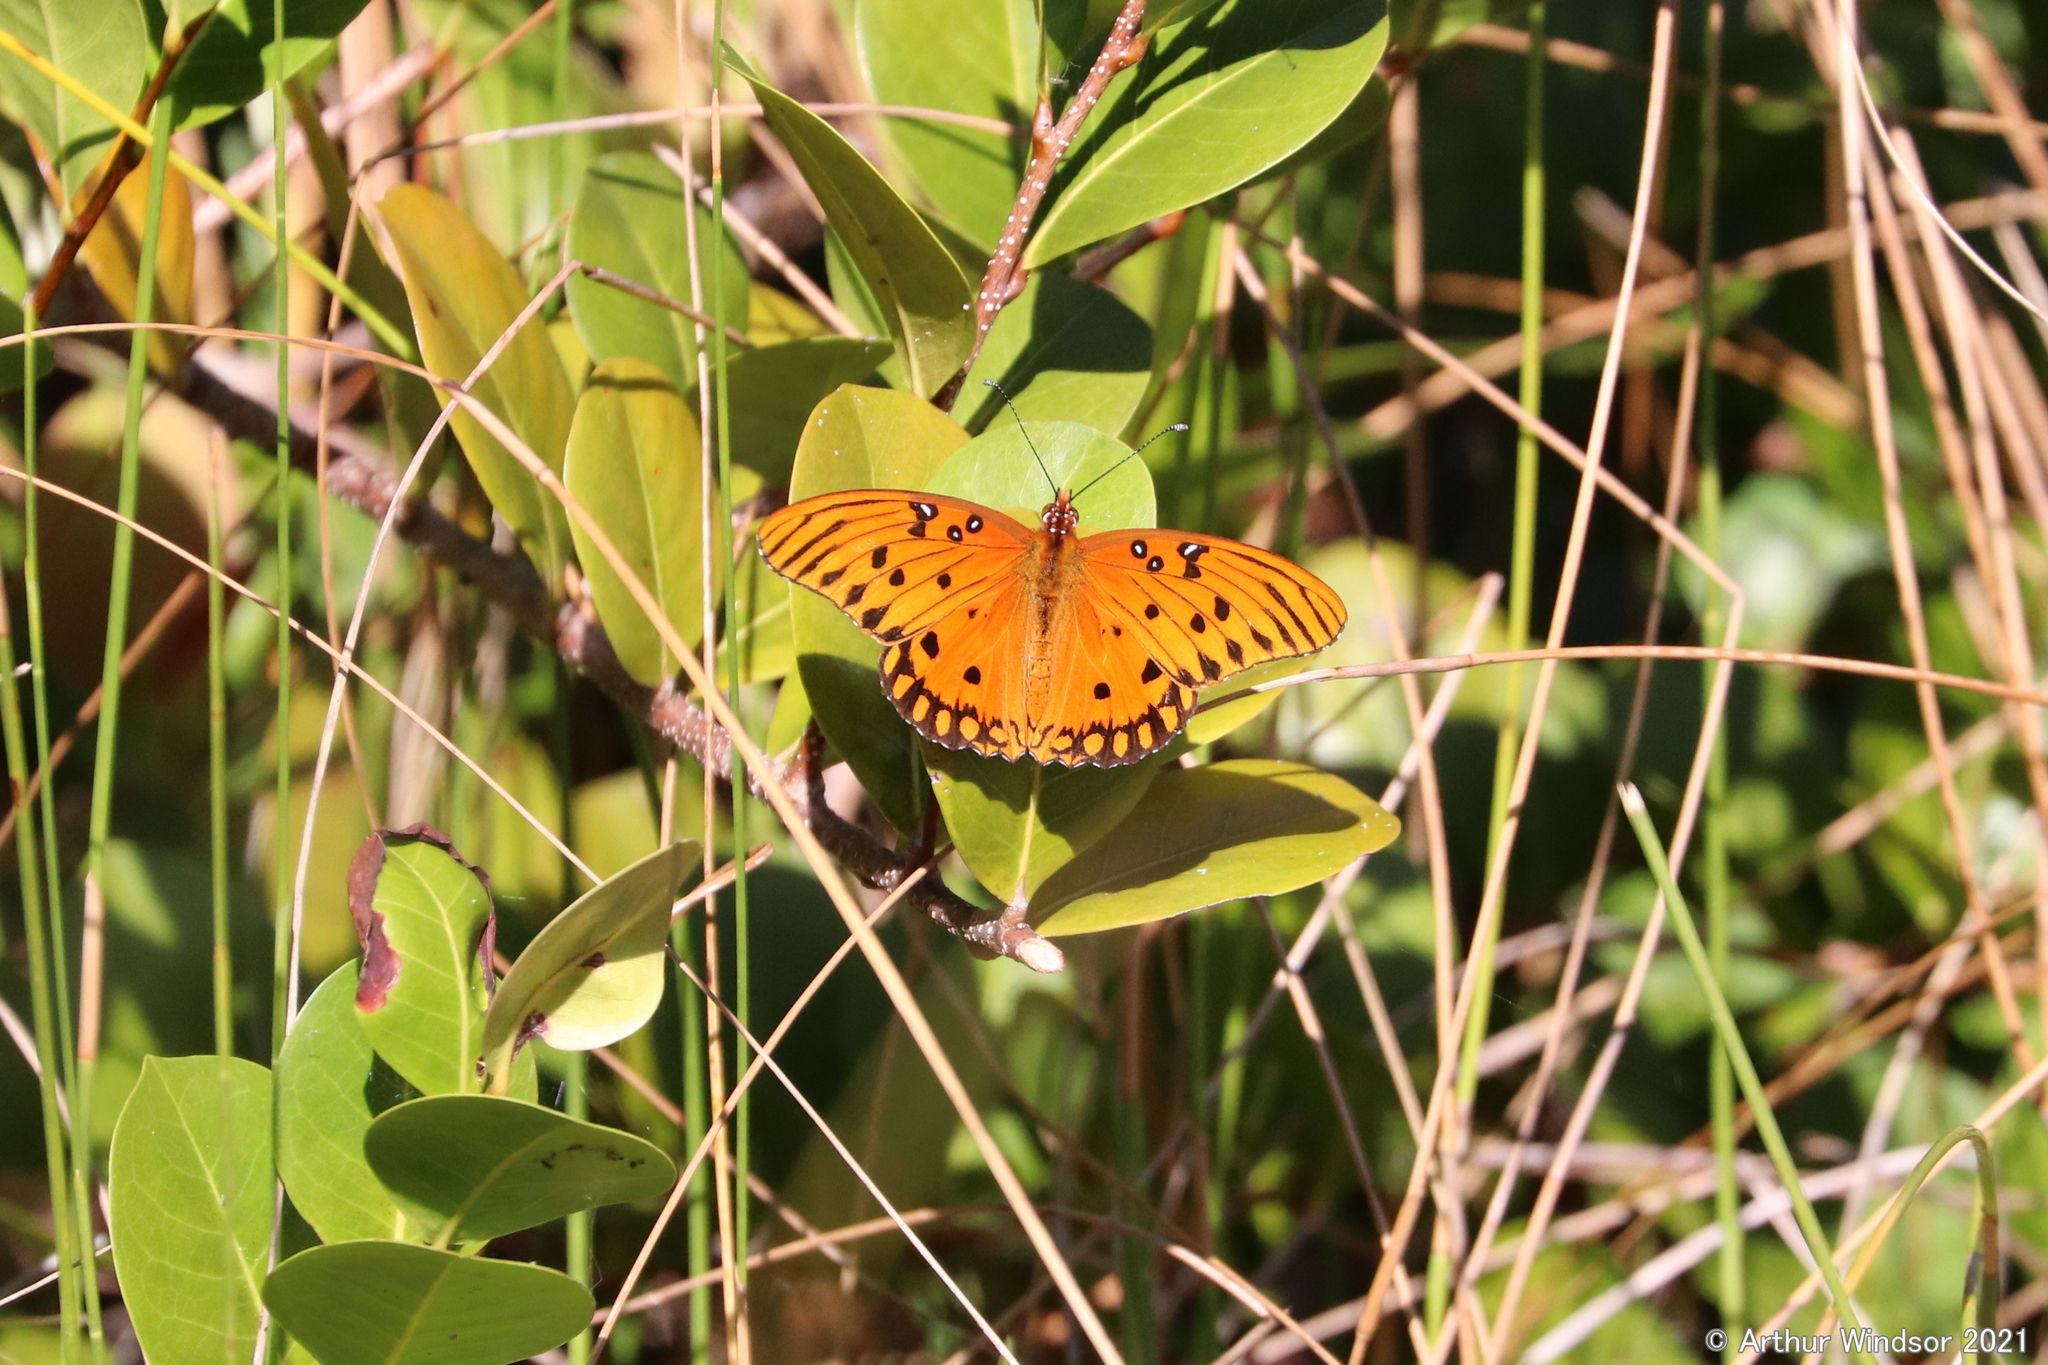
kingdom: Animalia
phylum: Arthropoda
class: Insecta
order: Lepidoptera
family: Nymphalidae
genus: Dione
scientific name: Dione vanillae
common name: Gulf fritillary
